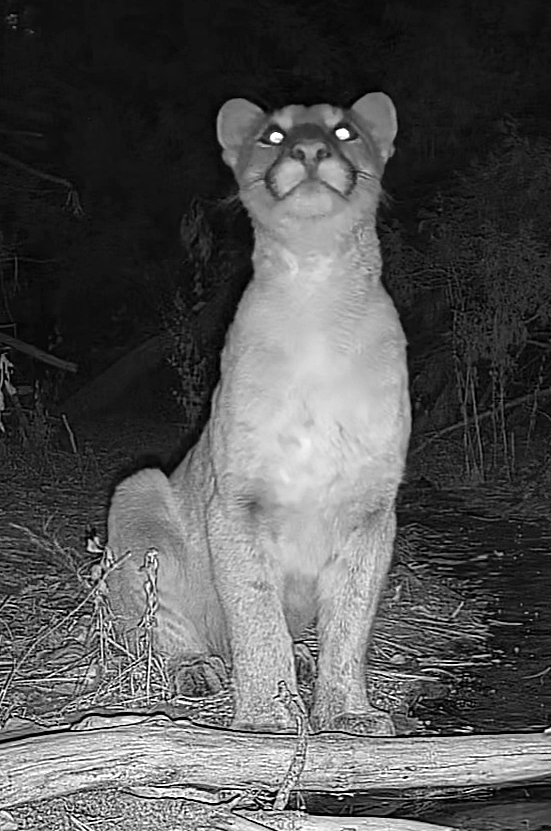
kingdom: Animalia
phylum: Chordata
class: Mammalia
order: Carnivora
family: Felidae
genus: Puma
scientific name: Puma concolor
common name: Puma
